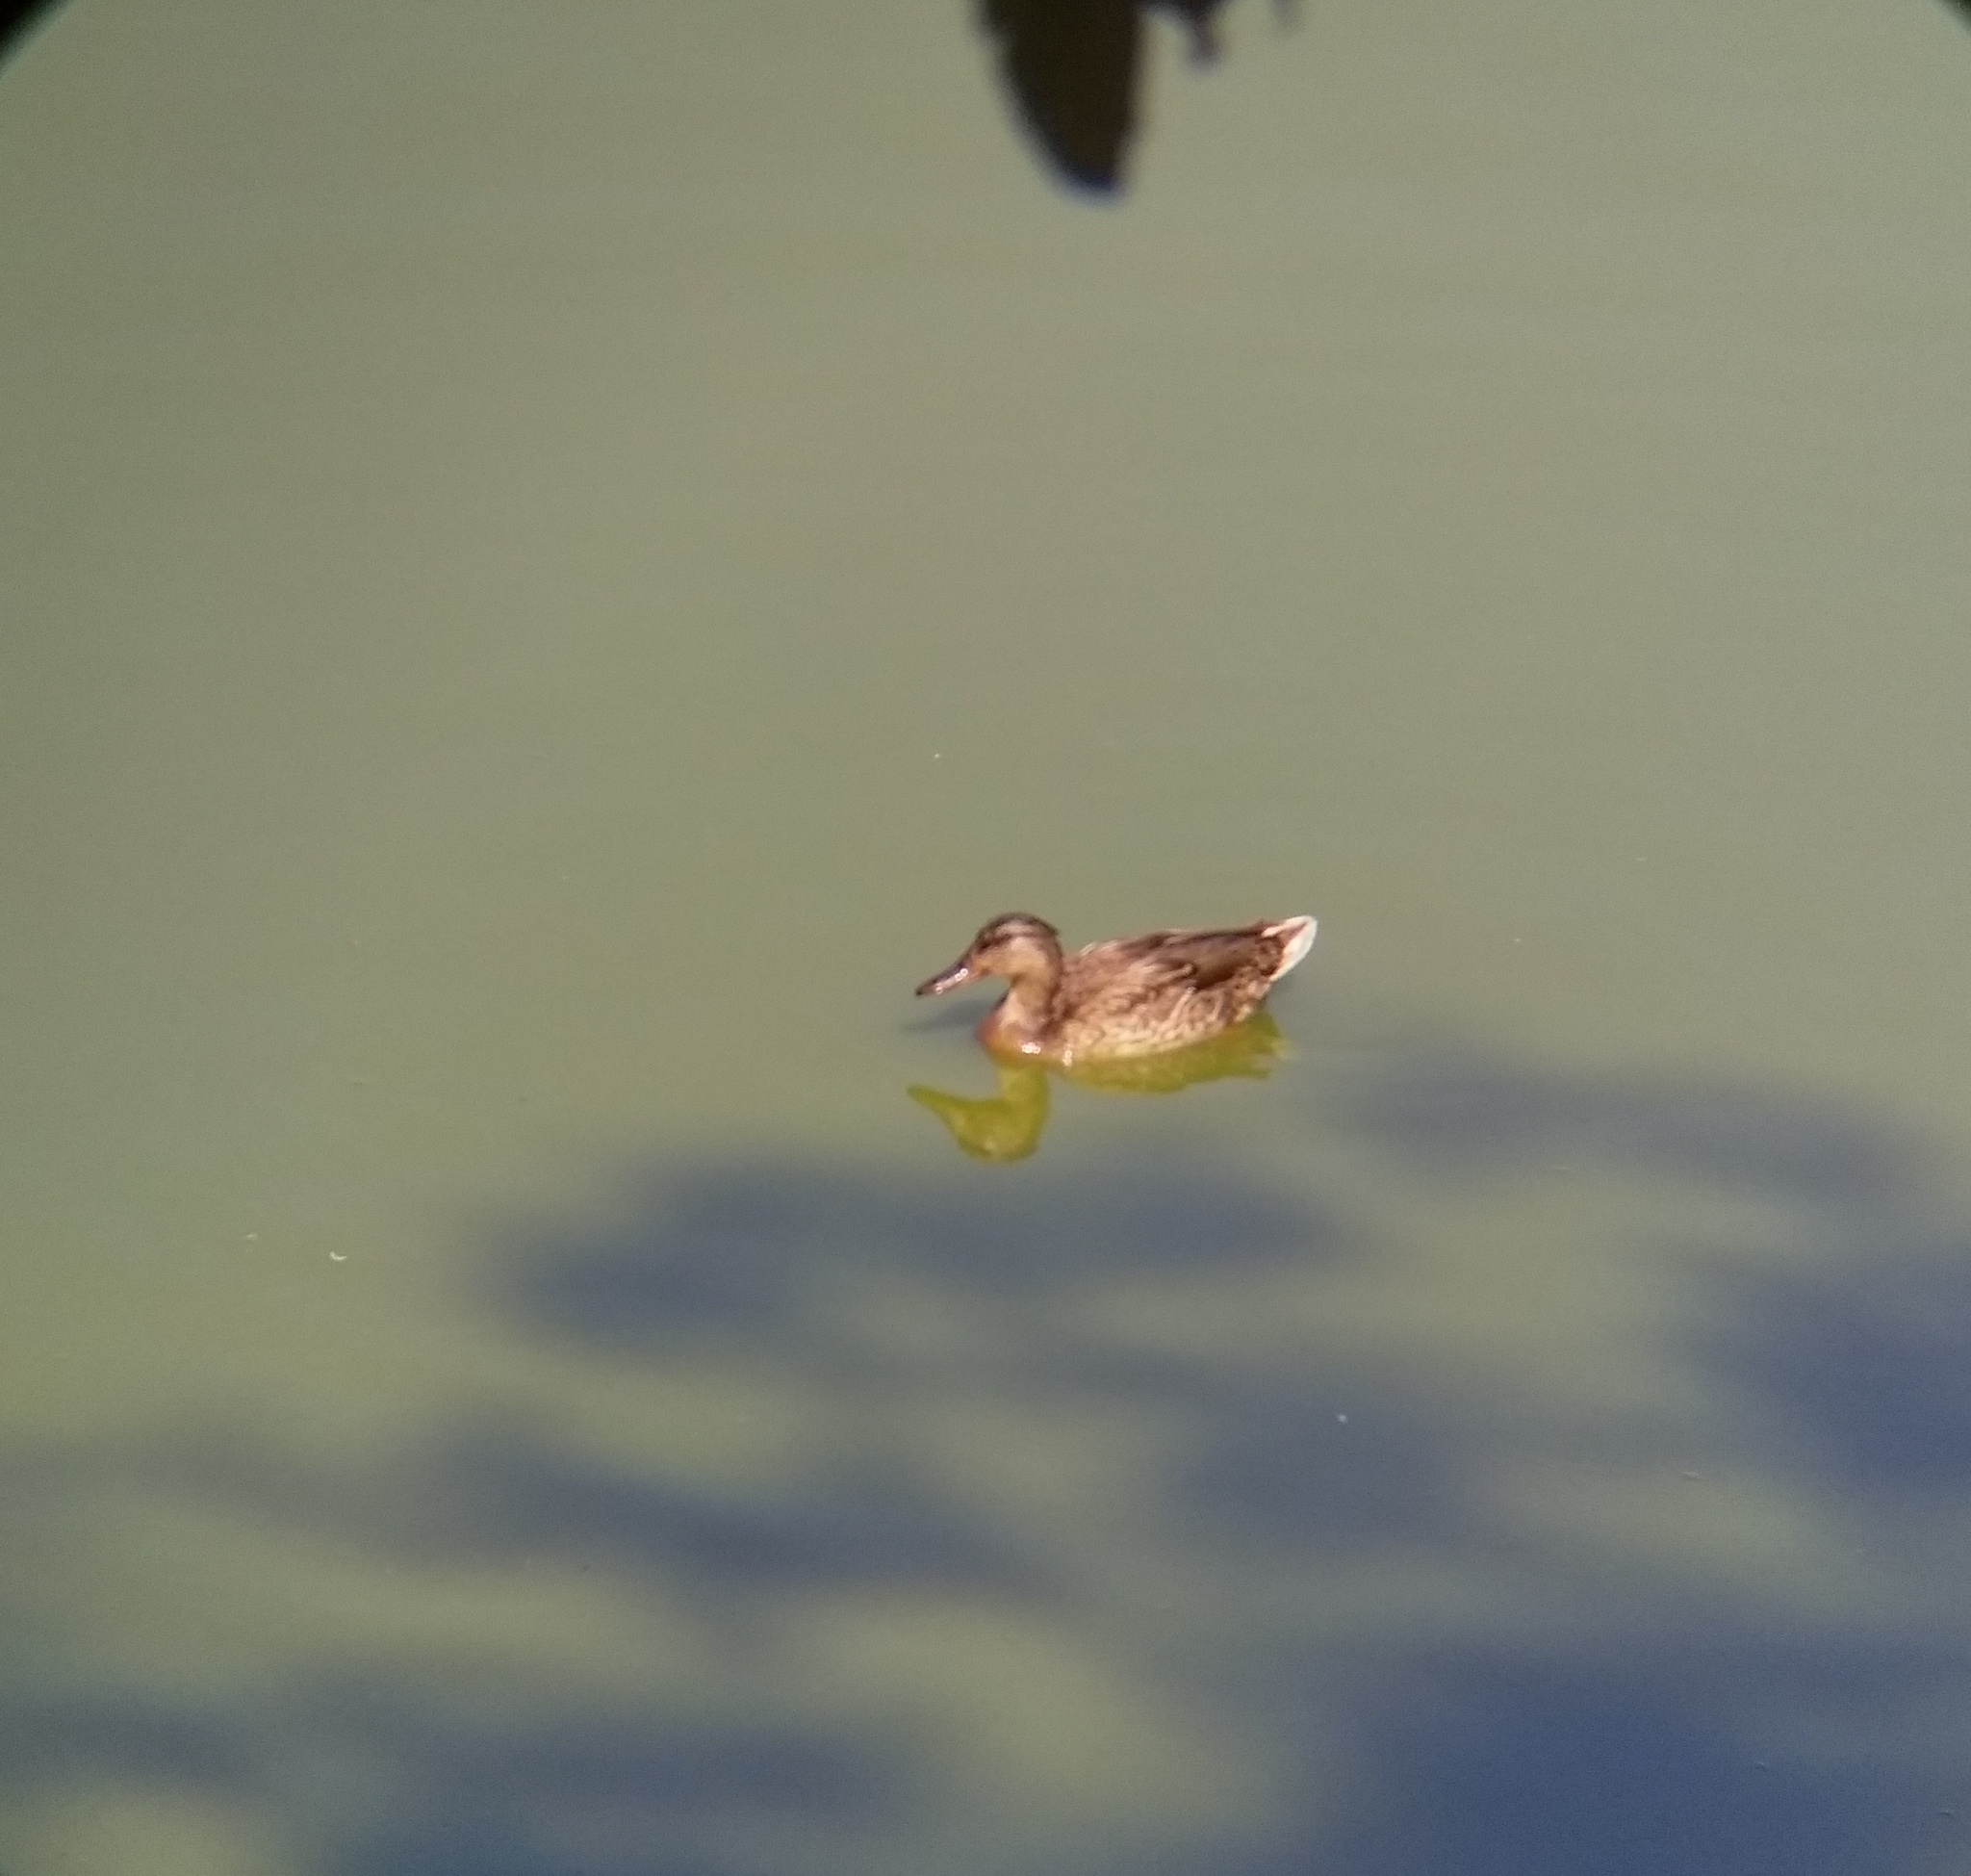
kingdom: Animalia
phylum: Chordata
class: Aves
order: Anseriformes
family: Anatidae
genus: Anas
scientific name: Anas platyrhynchos
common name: Mallard
